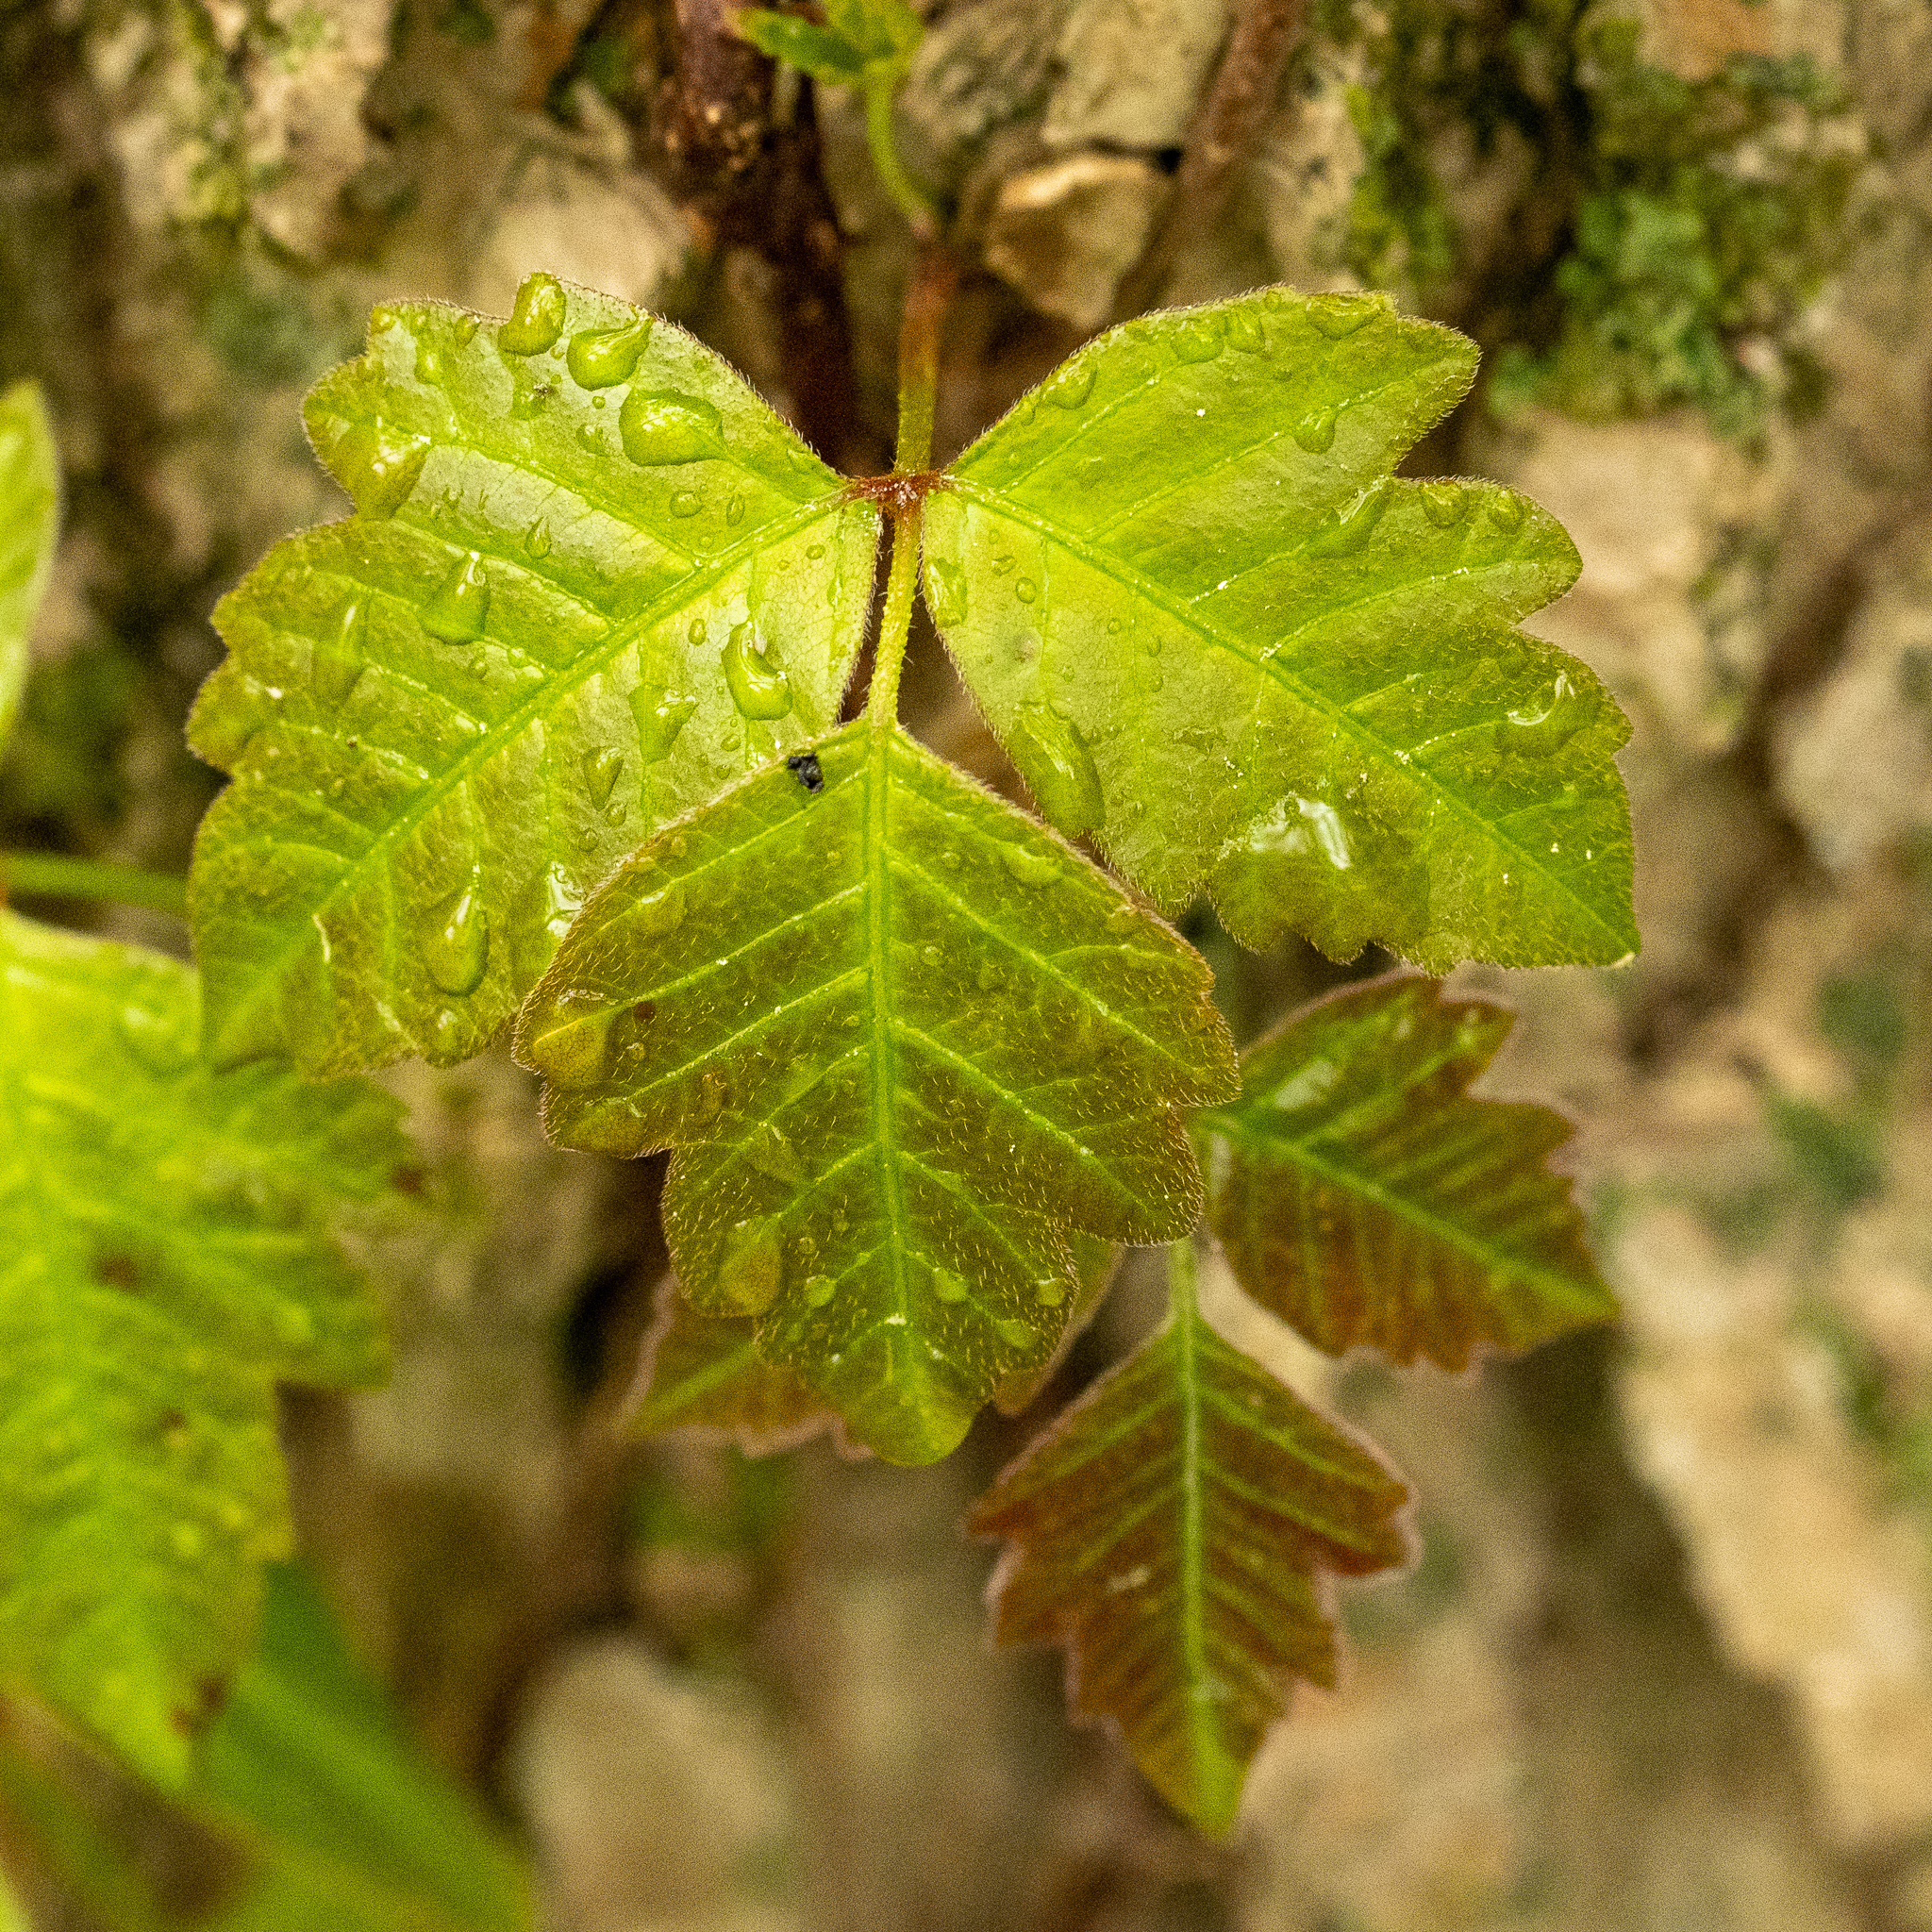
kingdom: Plantae
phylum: Tracheophyta
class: Magnoliopsida
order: Sapindales
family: Anacardiaceae
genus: Toxicodendron
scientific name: Toxicodendron radicans
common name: Poison ivy
